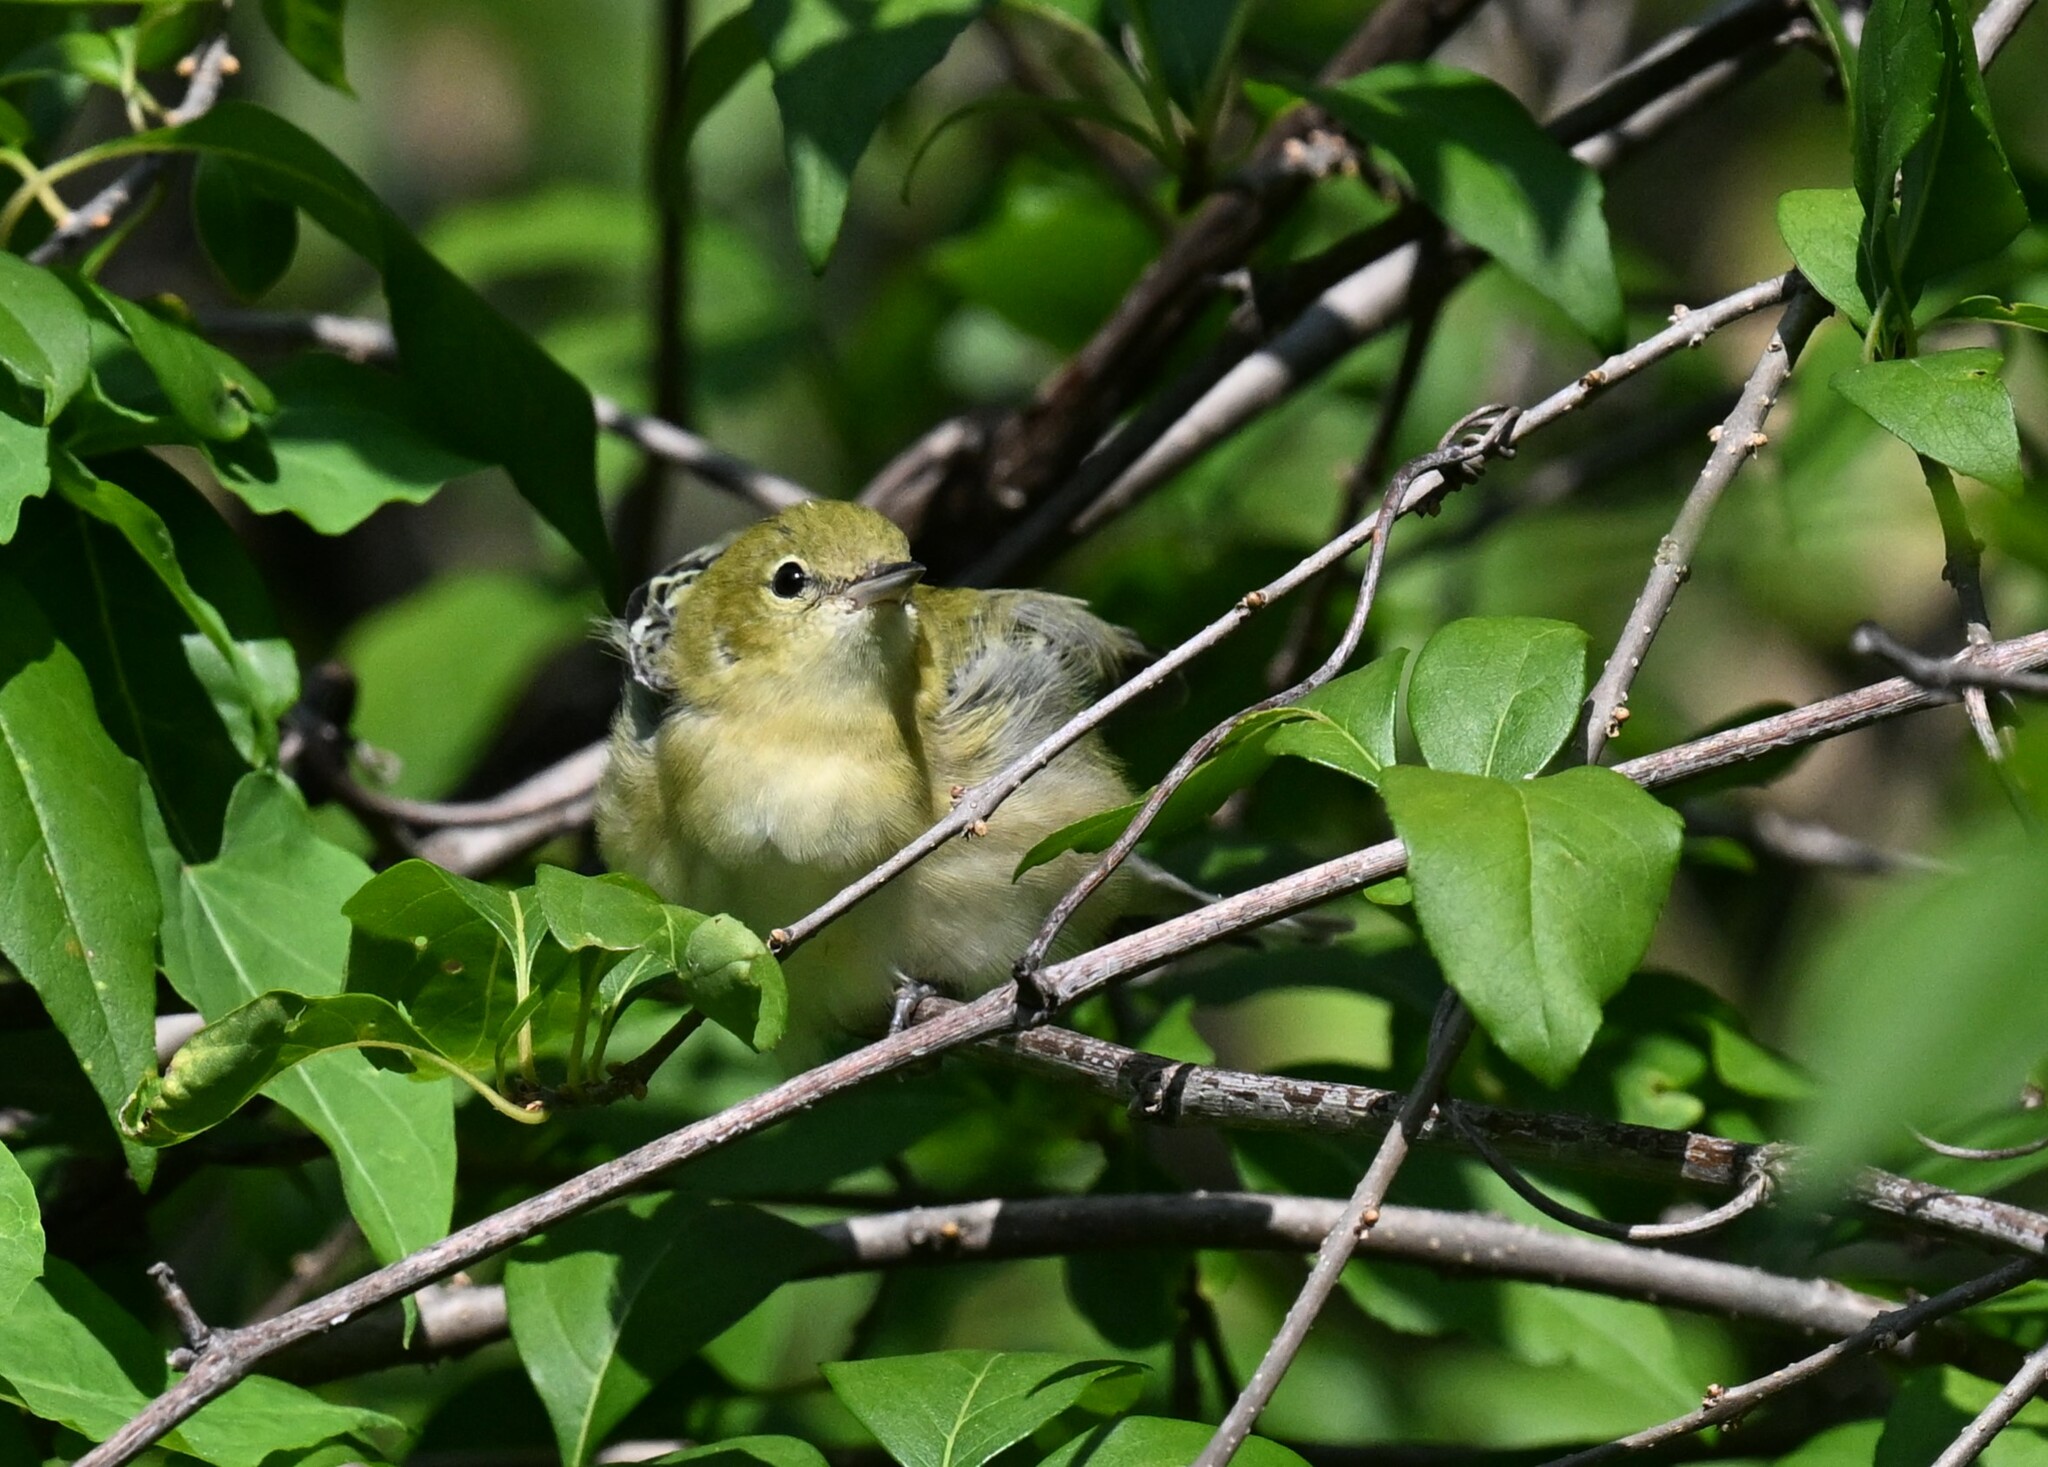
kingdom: Animalia
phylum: Chordata
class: Aves
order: Passeriformes
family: Parulidae
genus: Setophaga
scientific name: Setophaga castanea
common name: Bay-breasted warbler
